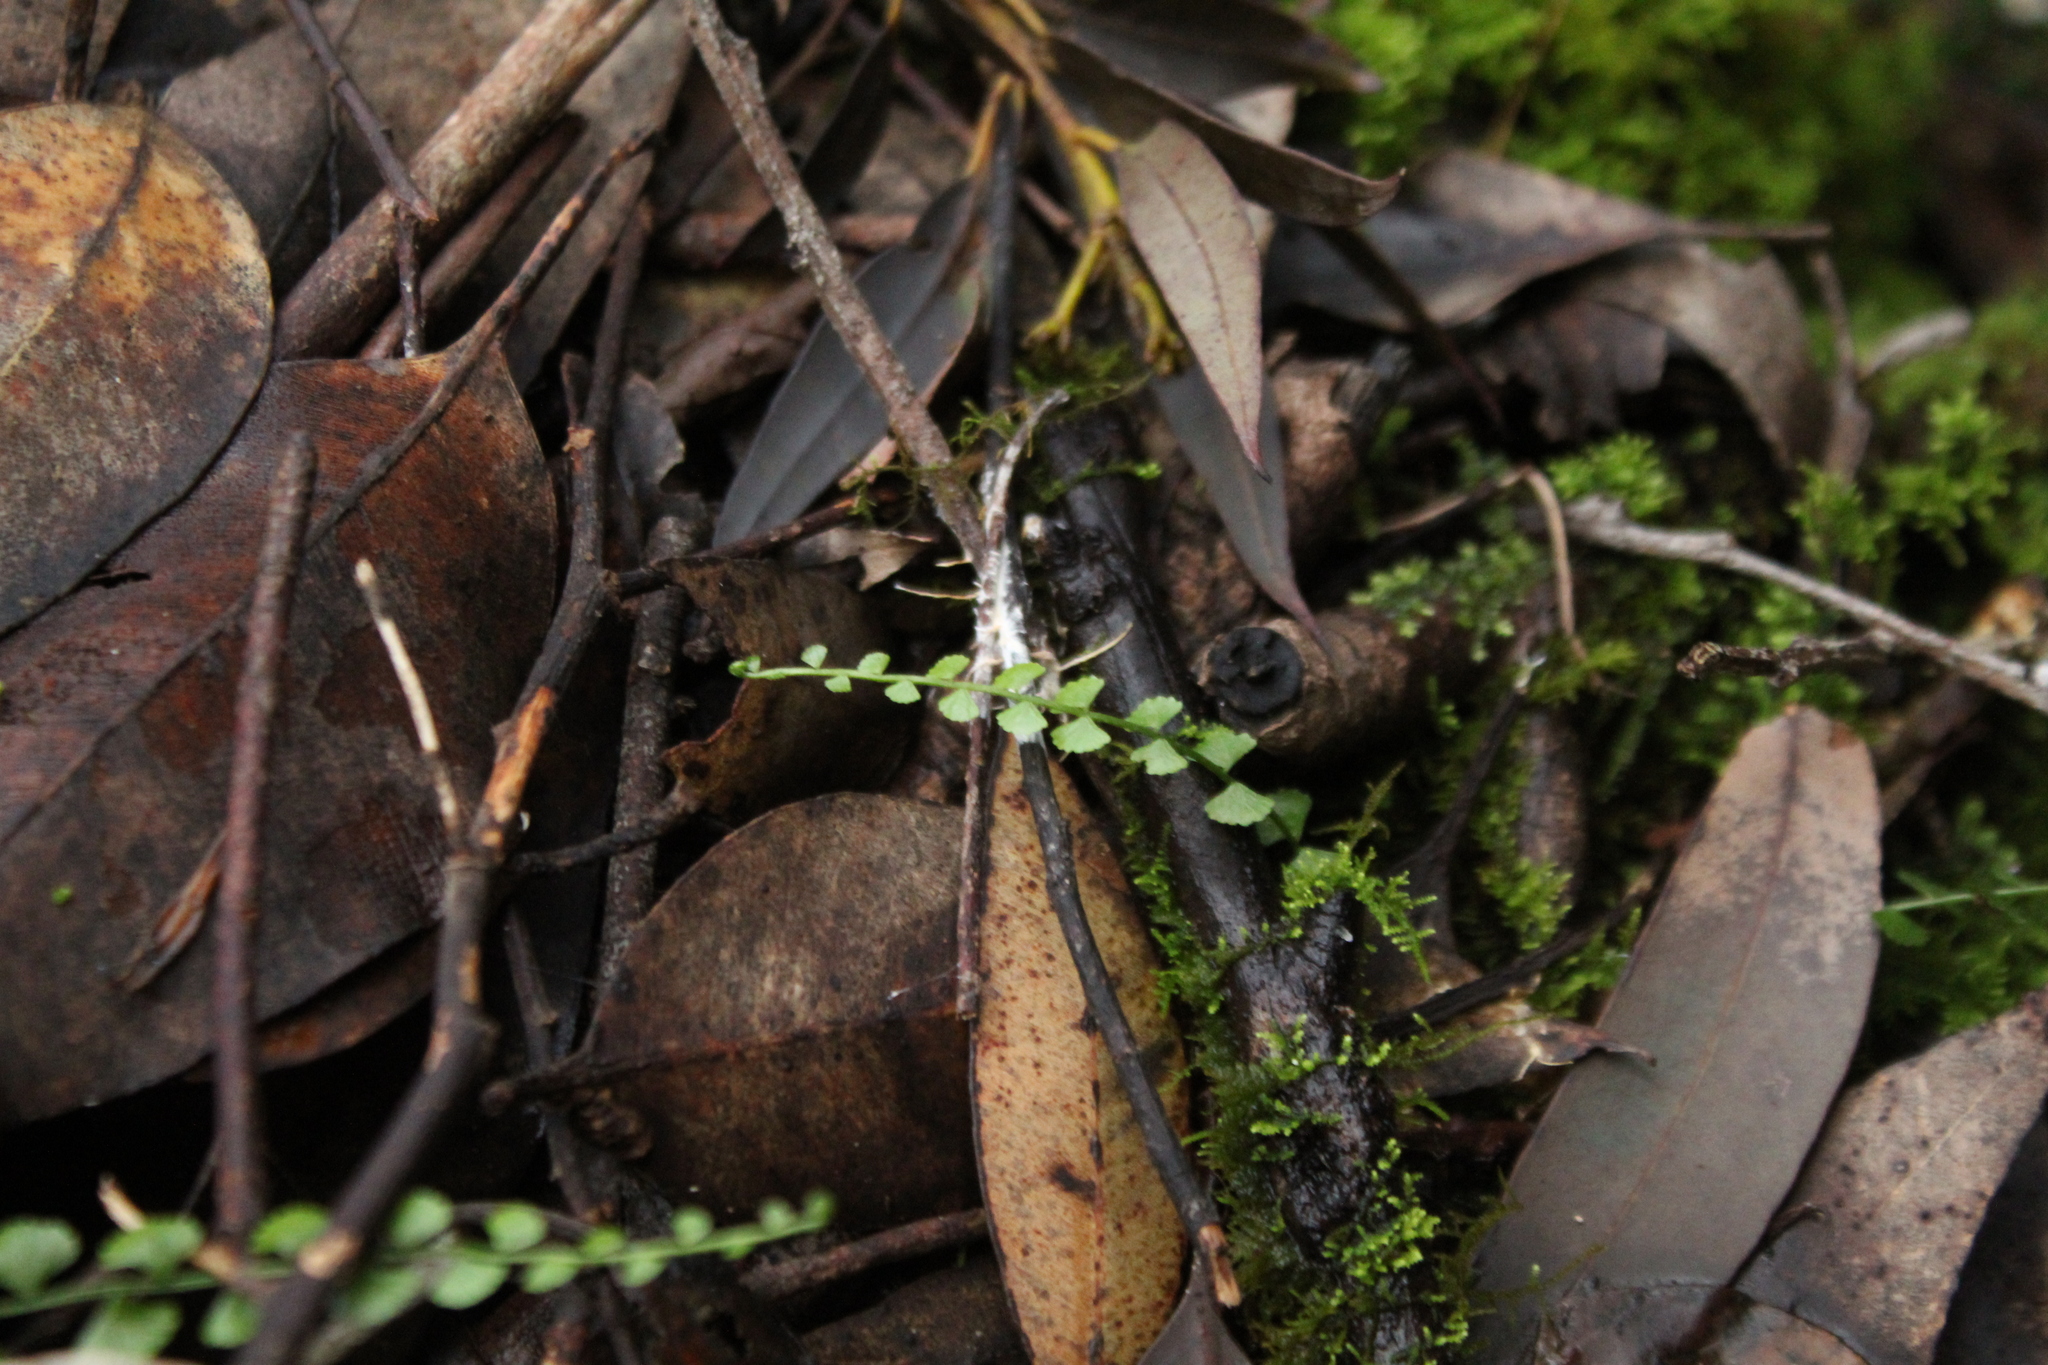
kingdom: Plantae
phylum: Tracheophyta
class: Polypodiopsida
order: Polypodiales
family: Aspleniaceae
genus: Asplenium
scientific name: Asplenium flabellifolium
